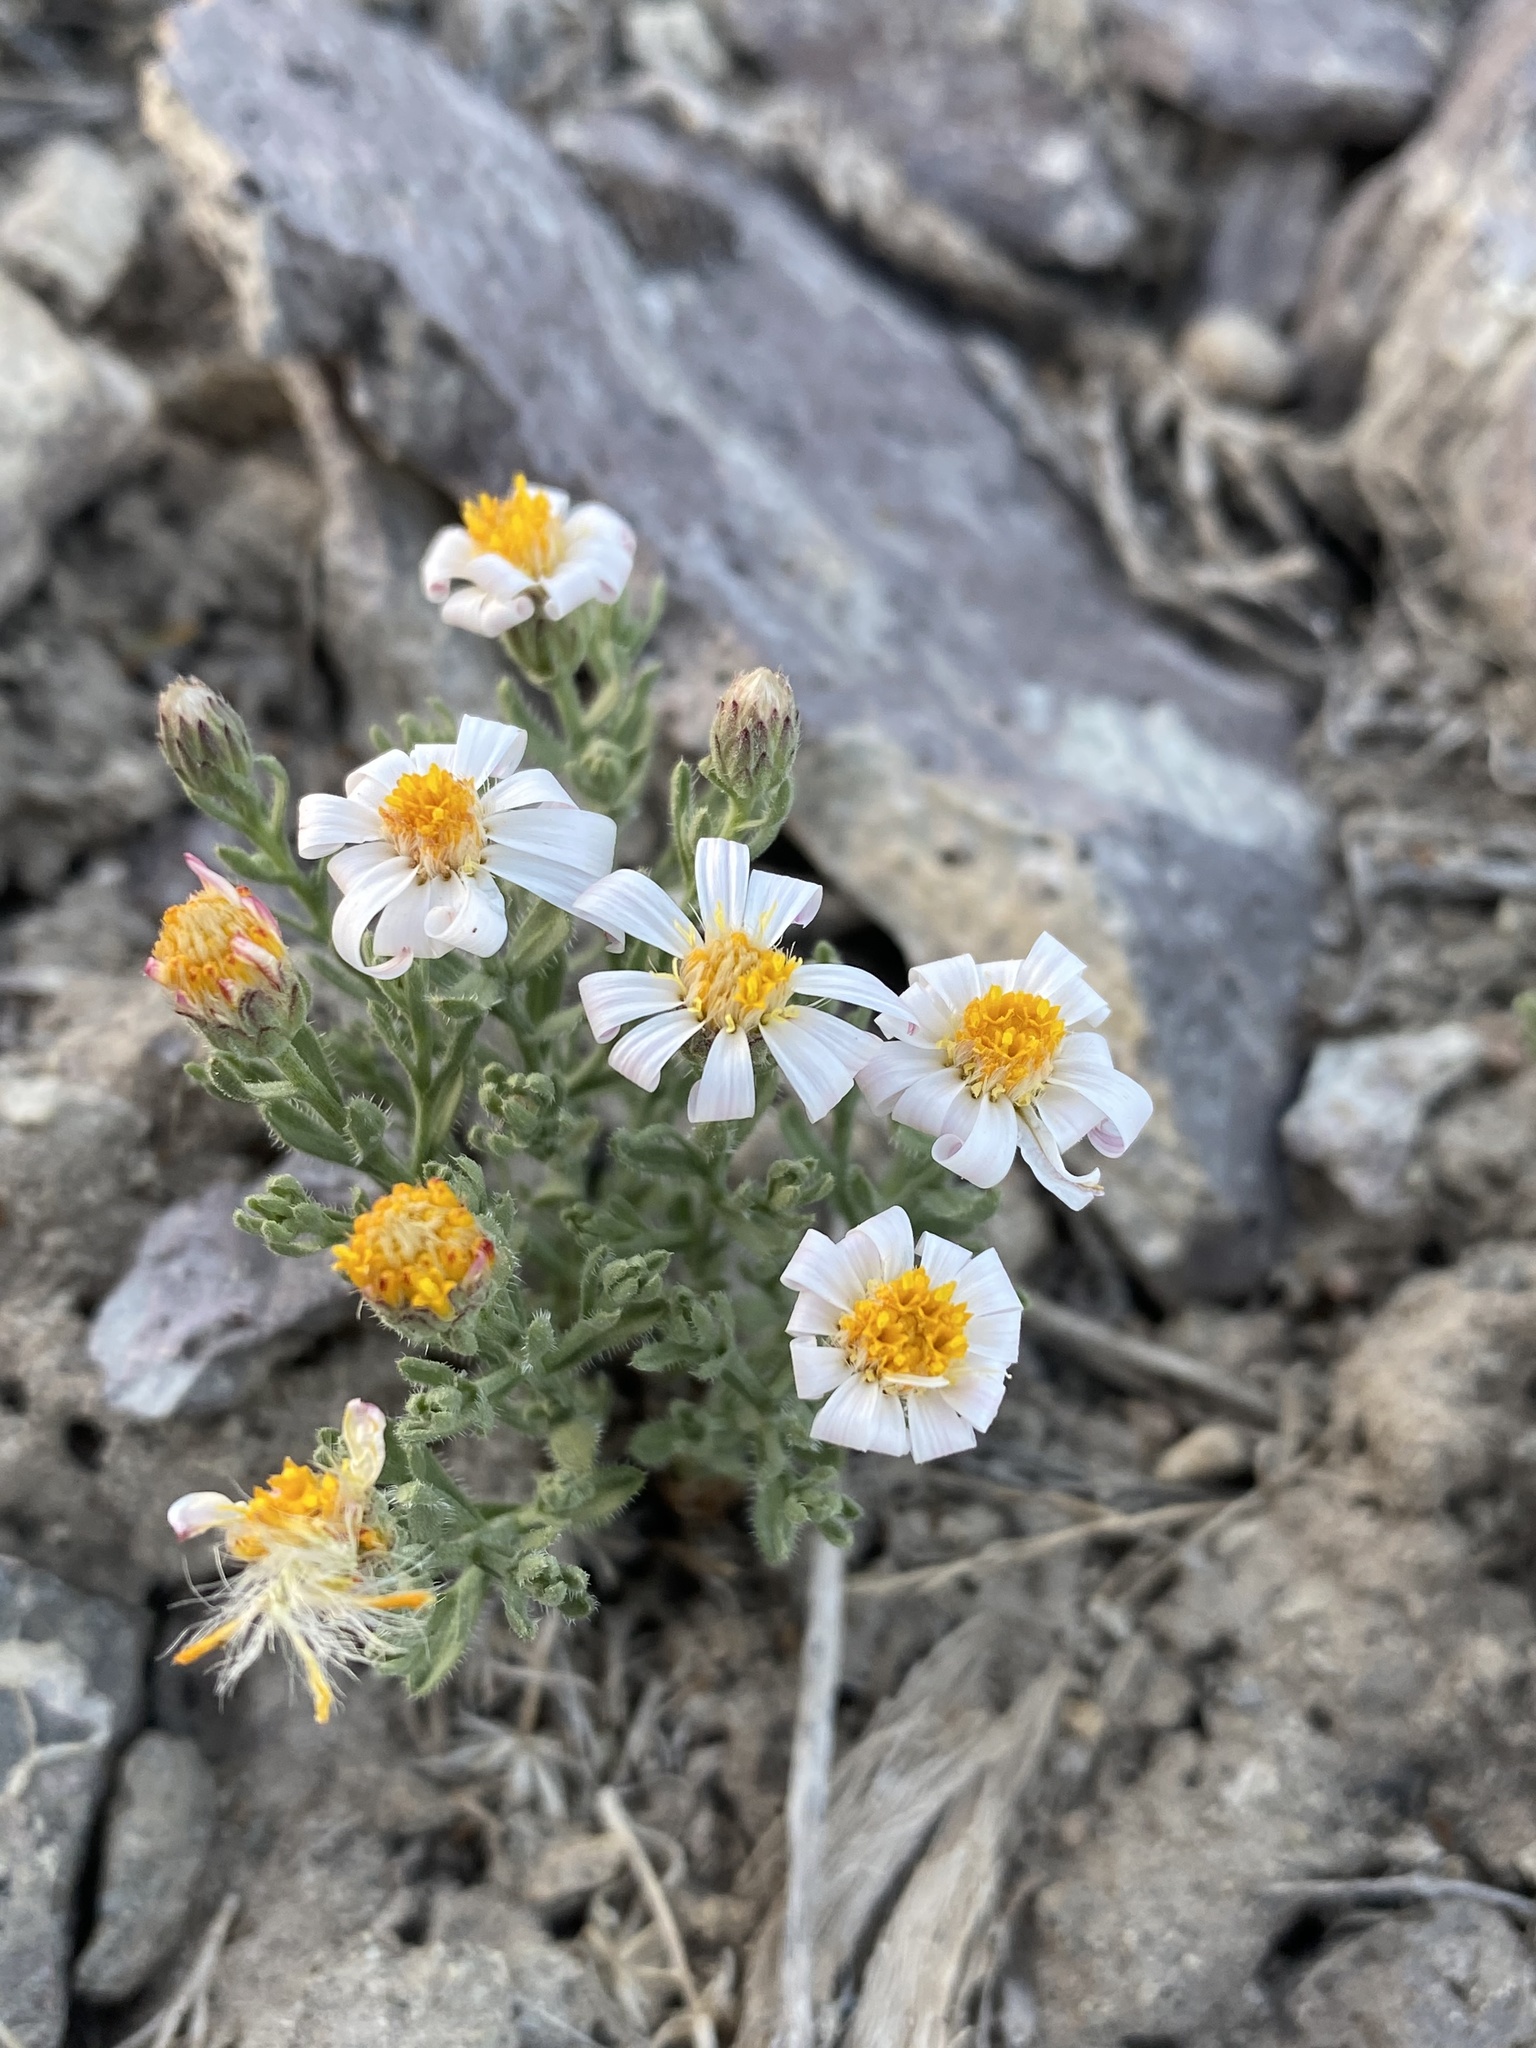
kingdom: Plantae
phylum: Tracheophyta
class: Magnoliopsida
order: Asterales
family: Asteraceae
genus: Chaetopappa
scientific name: Chaetopappa ericoides
